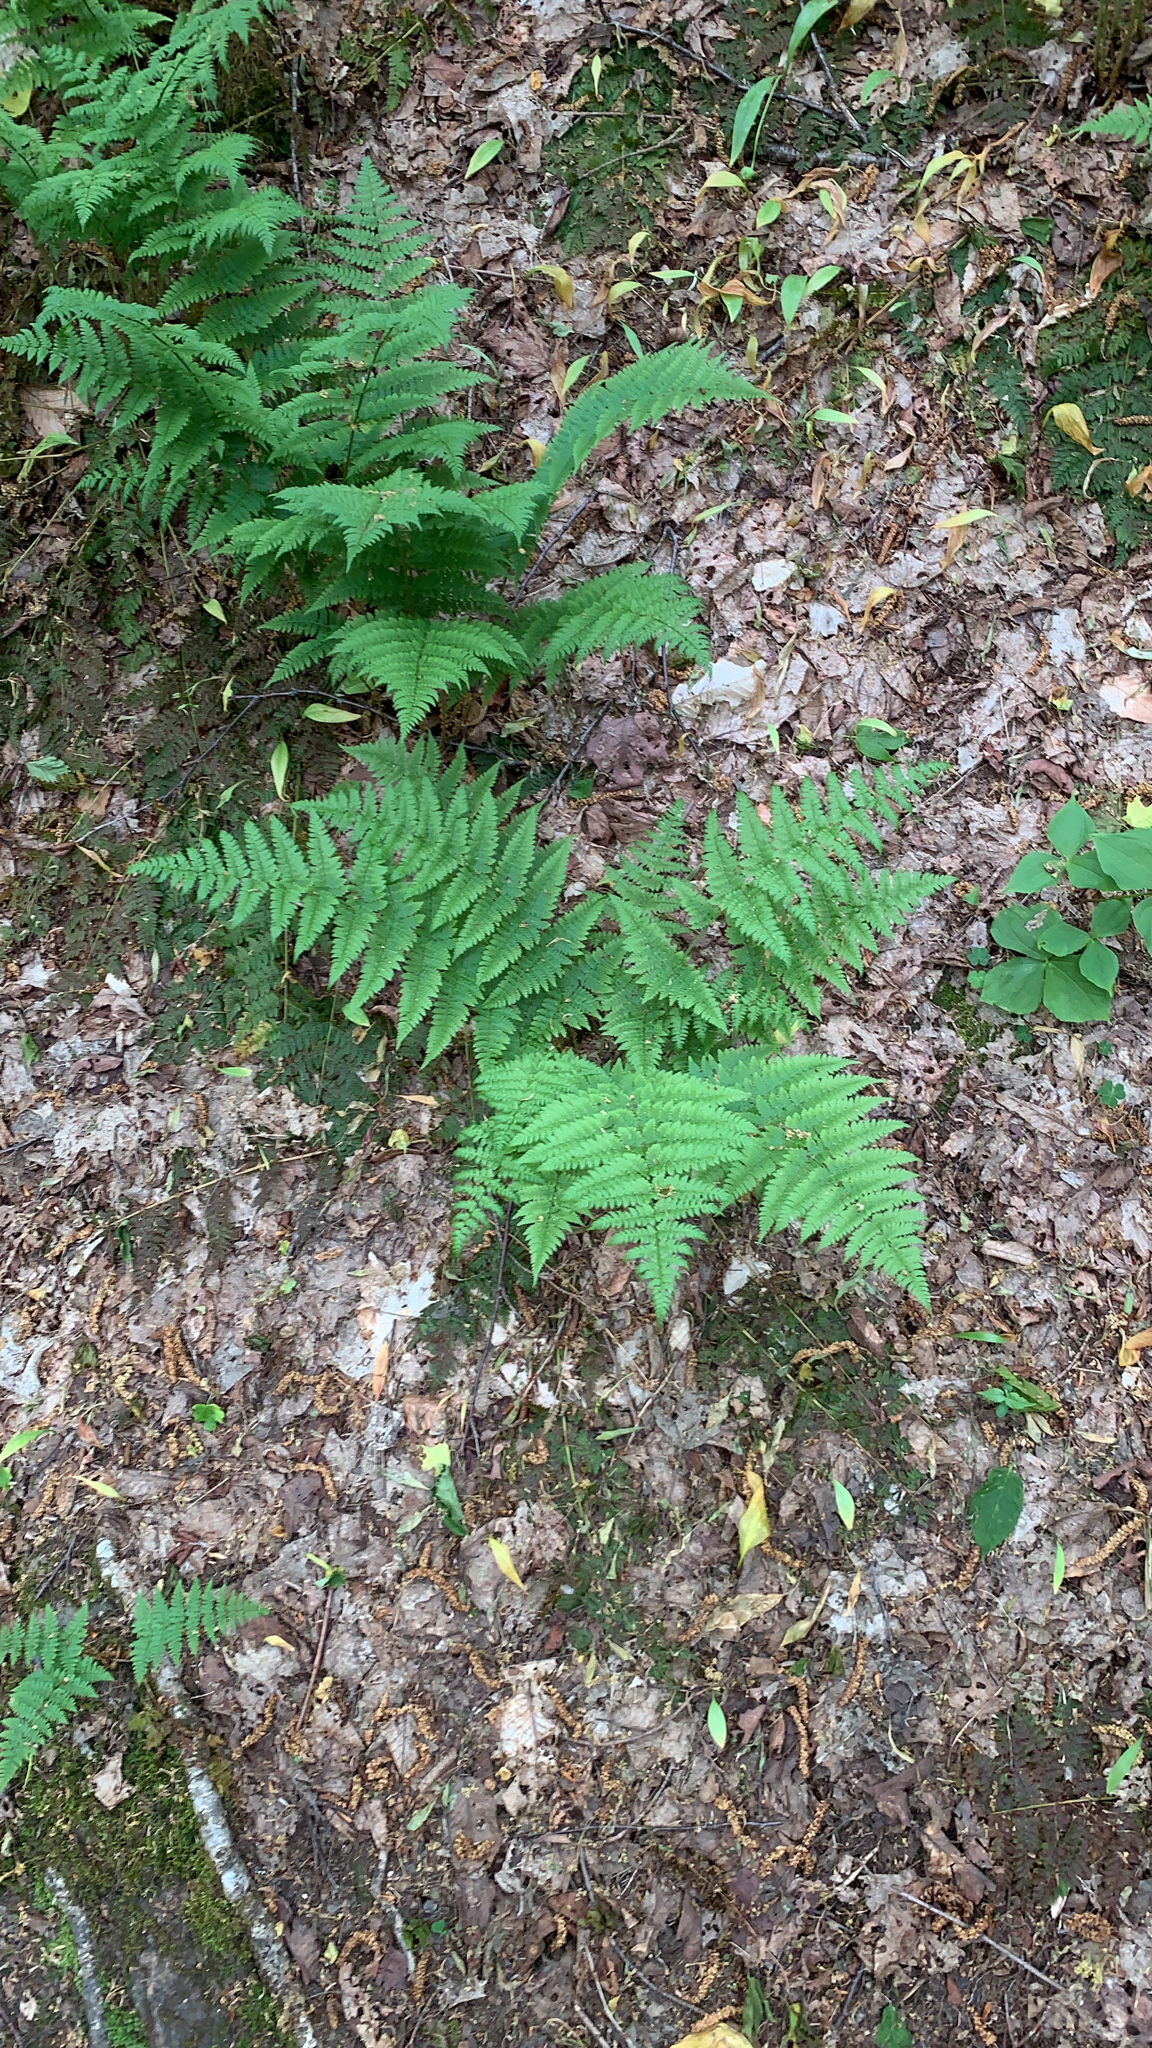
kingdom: Plantae
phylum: Tracheophyta
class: Polypodiopsida
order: Polypodiales
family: Dryopteridaceae
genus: Dryopteris
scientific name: Dryopteris intermedia
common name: Evergreen wood fern
